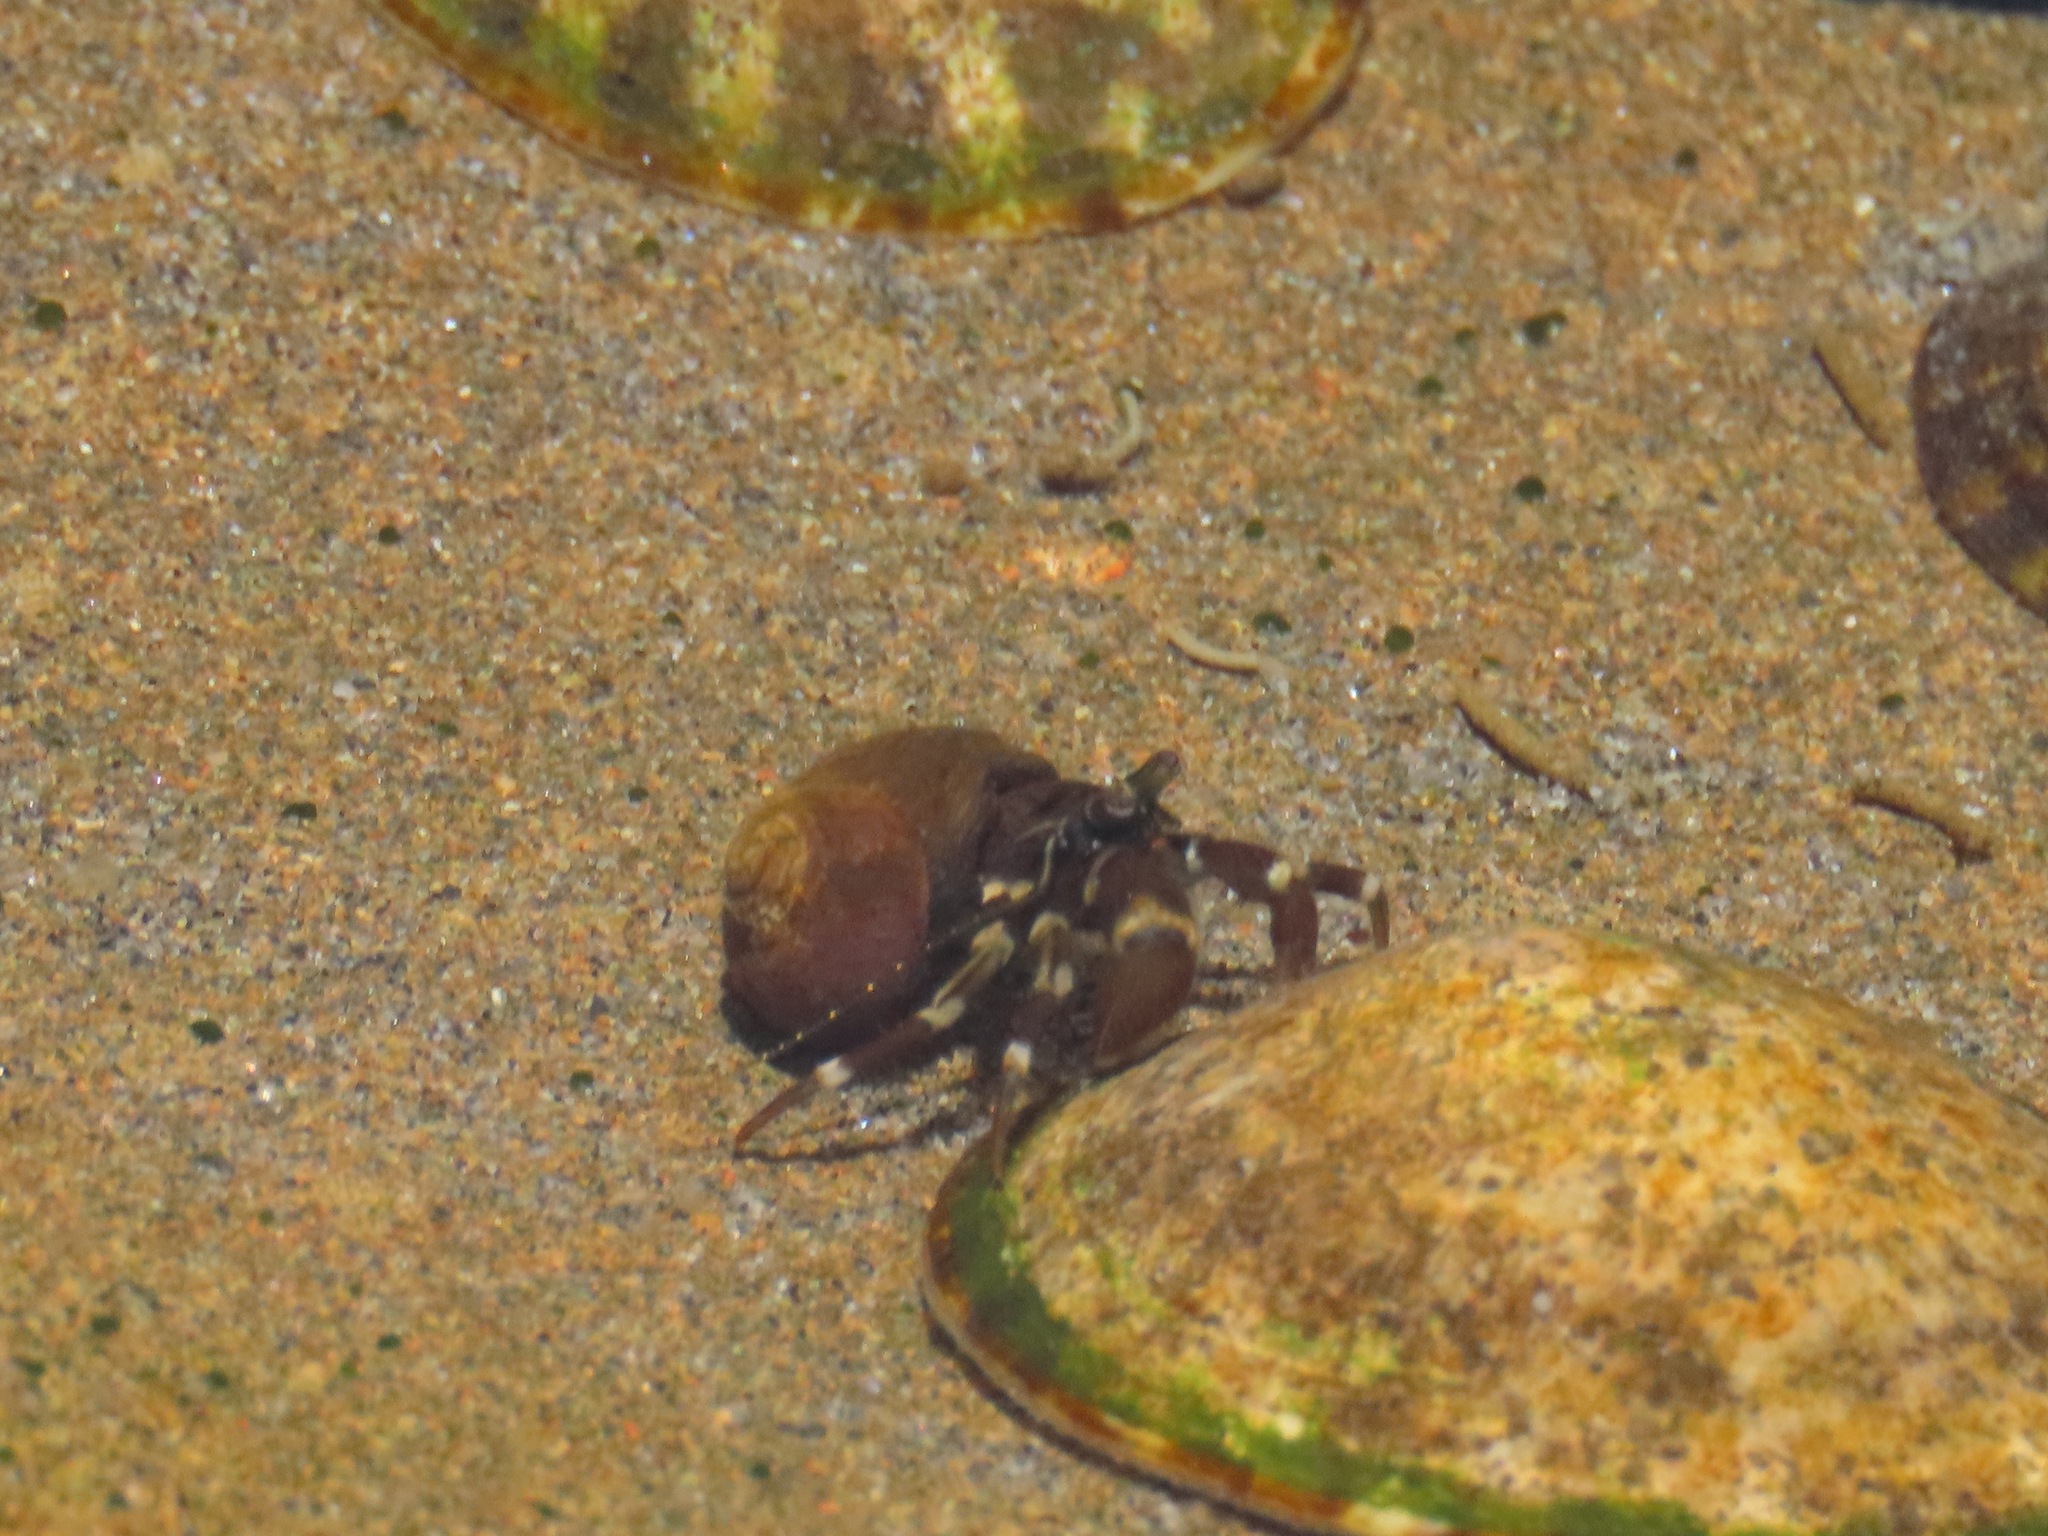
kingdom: Animalia
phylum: Arthropoda
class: Malacostraca
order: Decapoda
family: Paguridae
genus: Pagurus
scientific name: Pagurus hirsutiusculus
